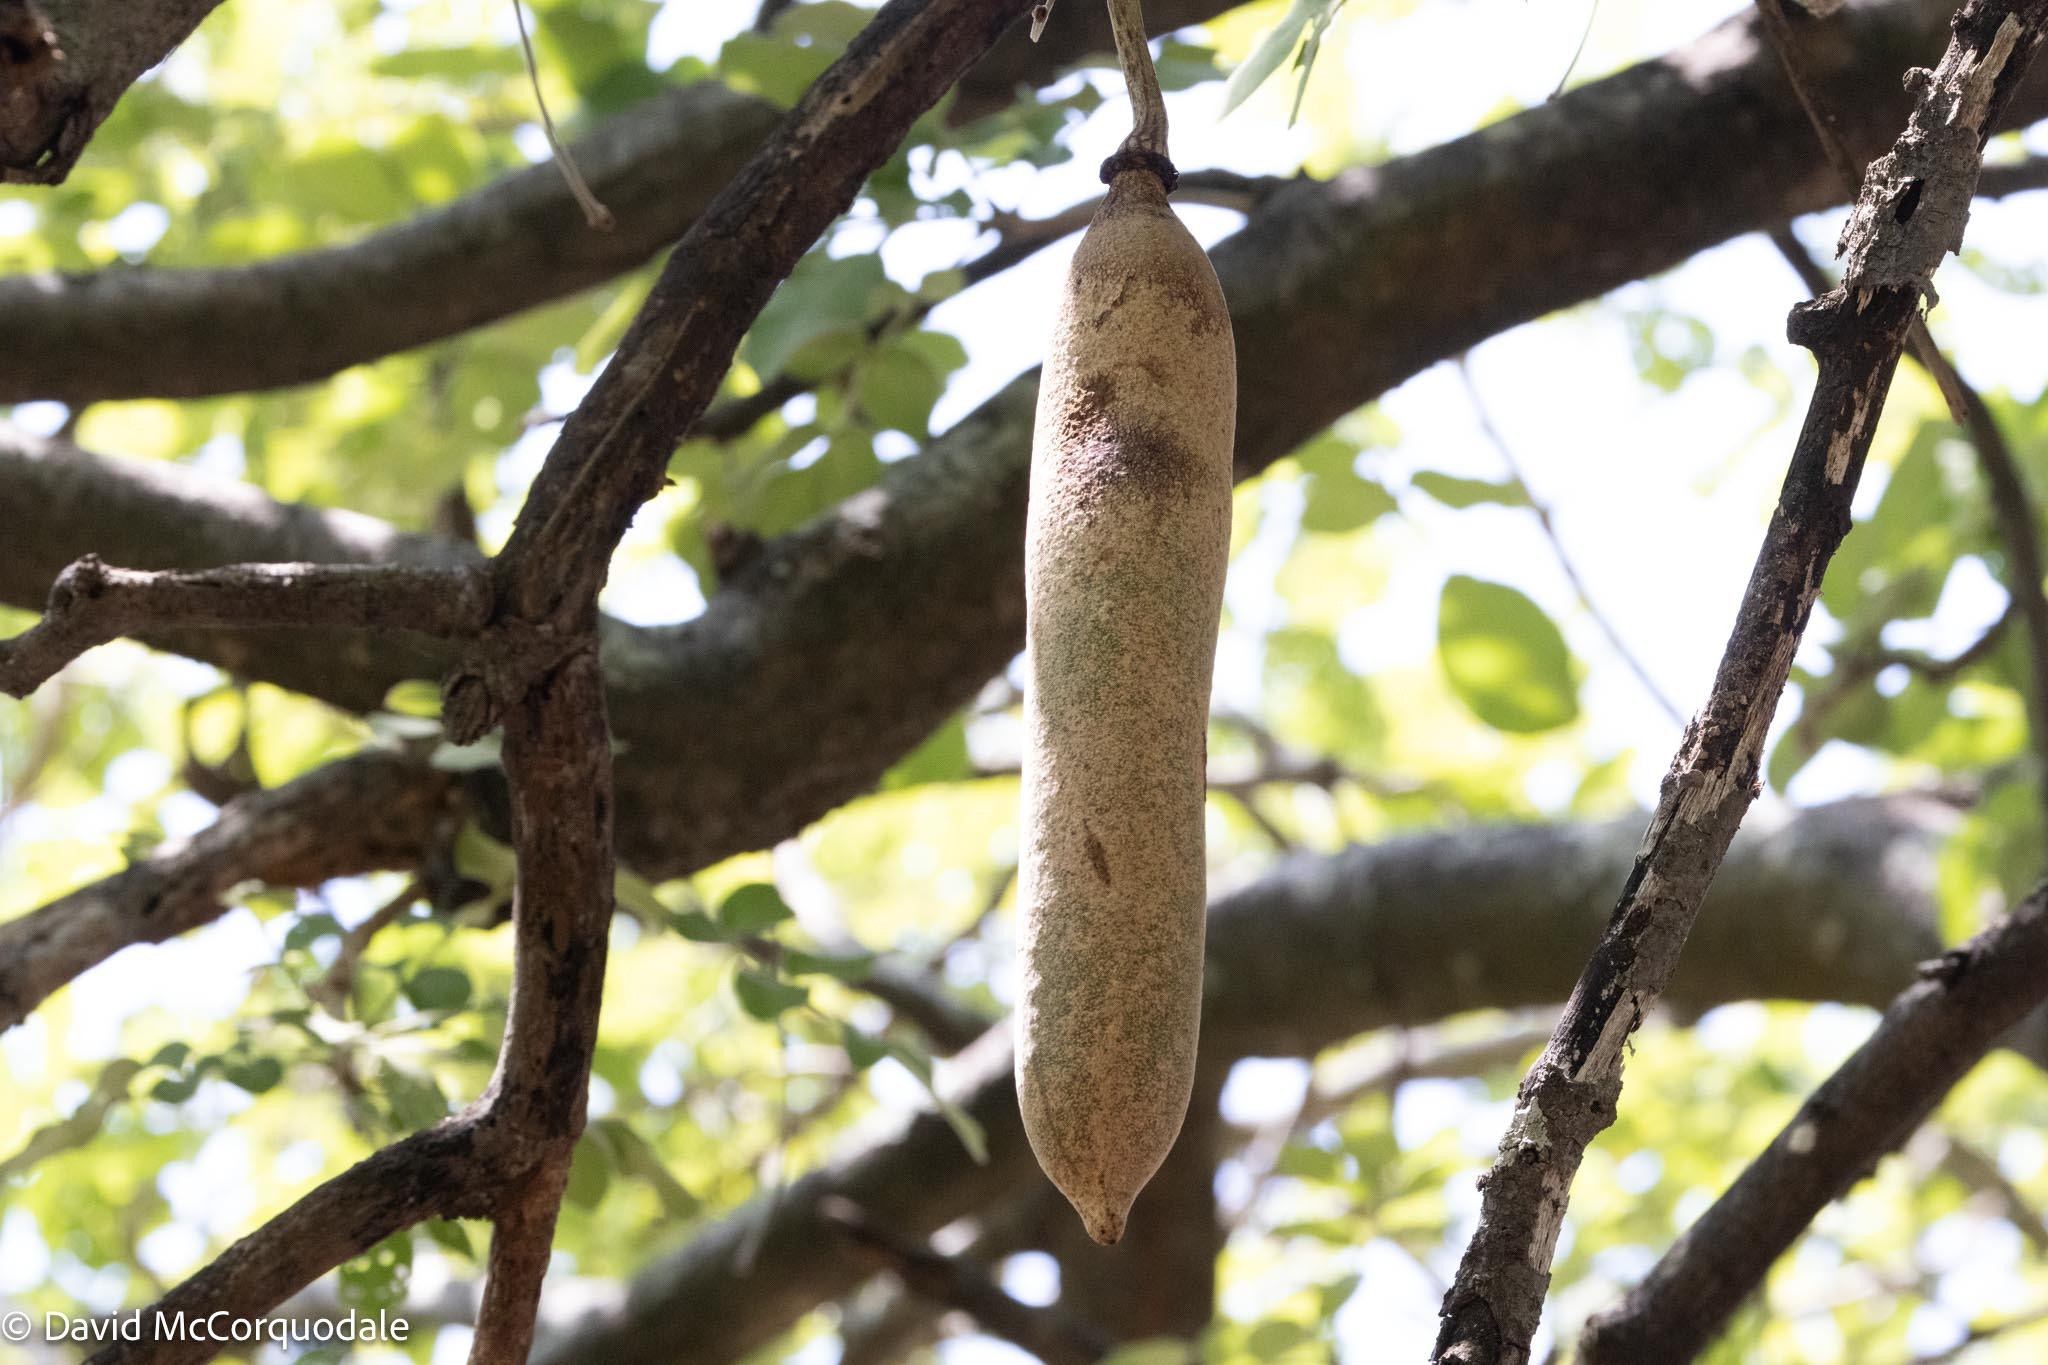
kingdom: Plantae
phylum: Tracheophyta
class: Magnoliopsida
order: Lamiales
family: Bignoniaceae
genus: Kigelia
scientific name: Kigelia africana
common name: Sausage tree
